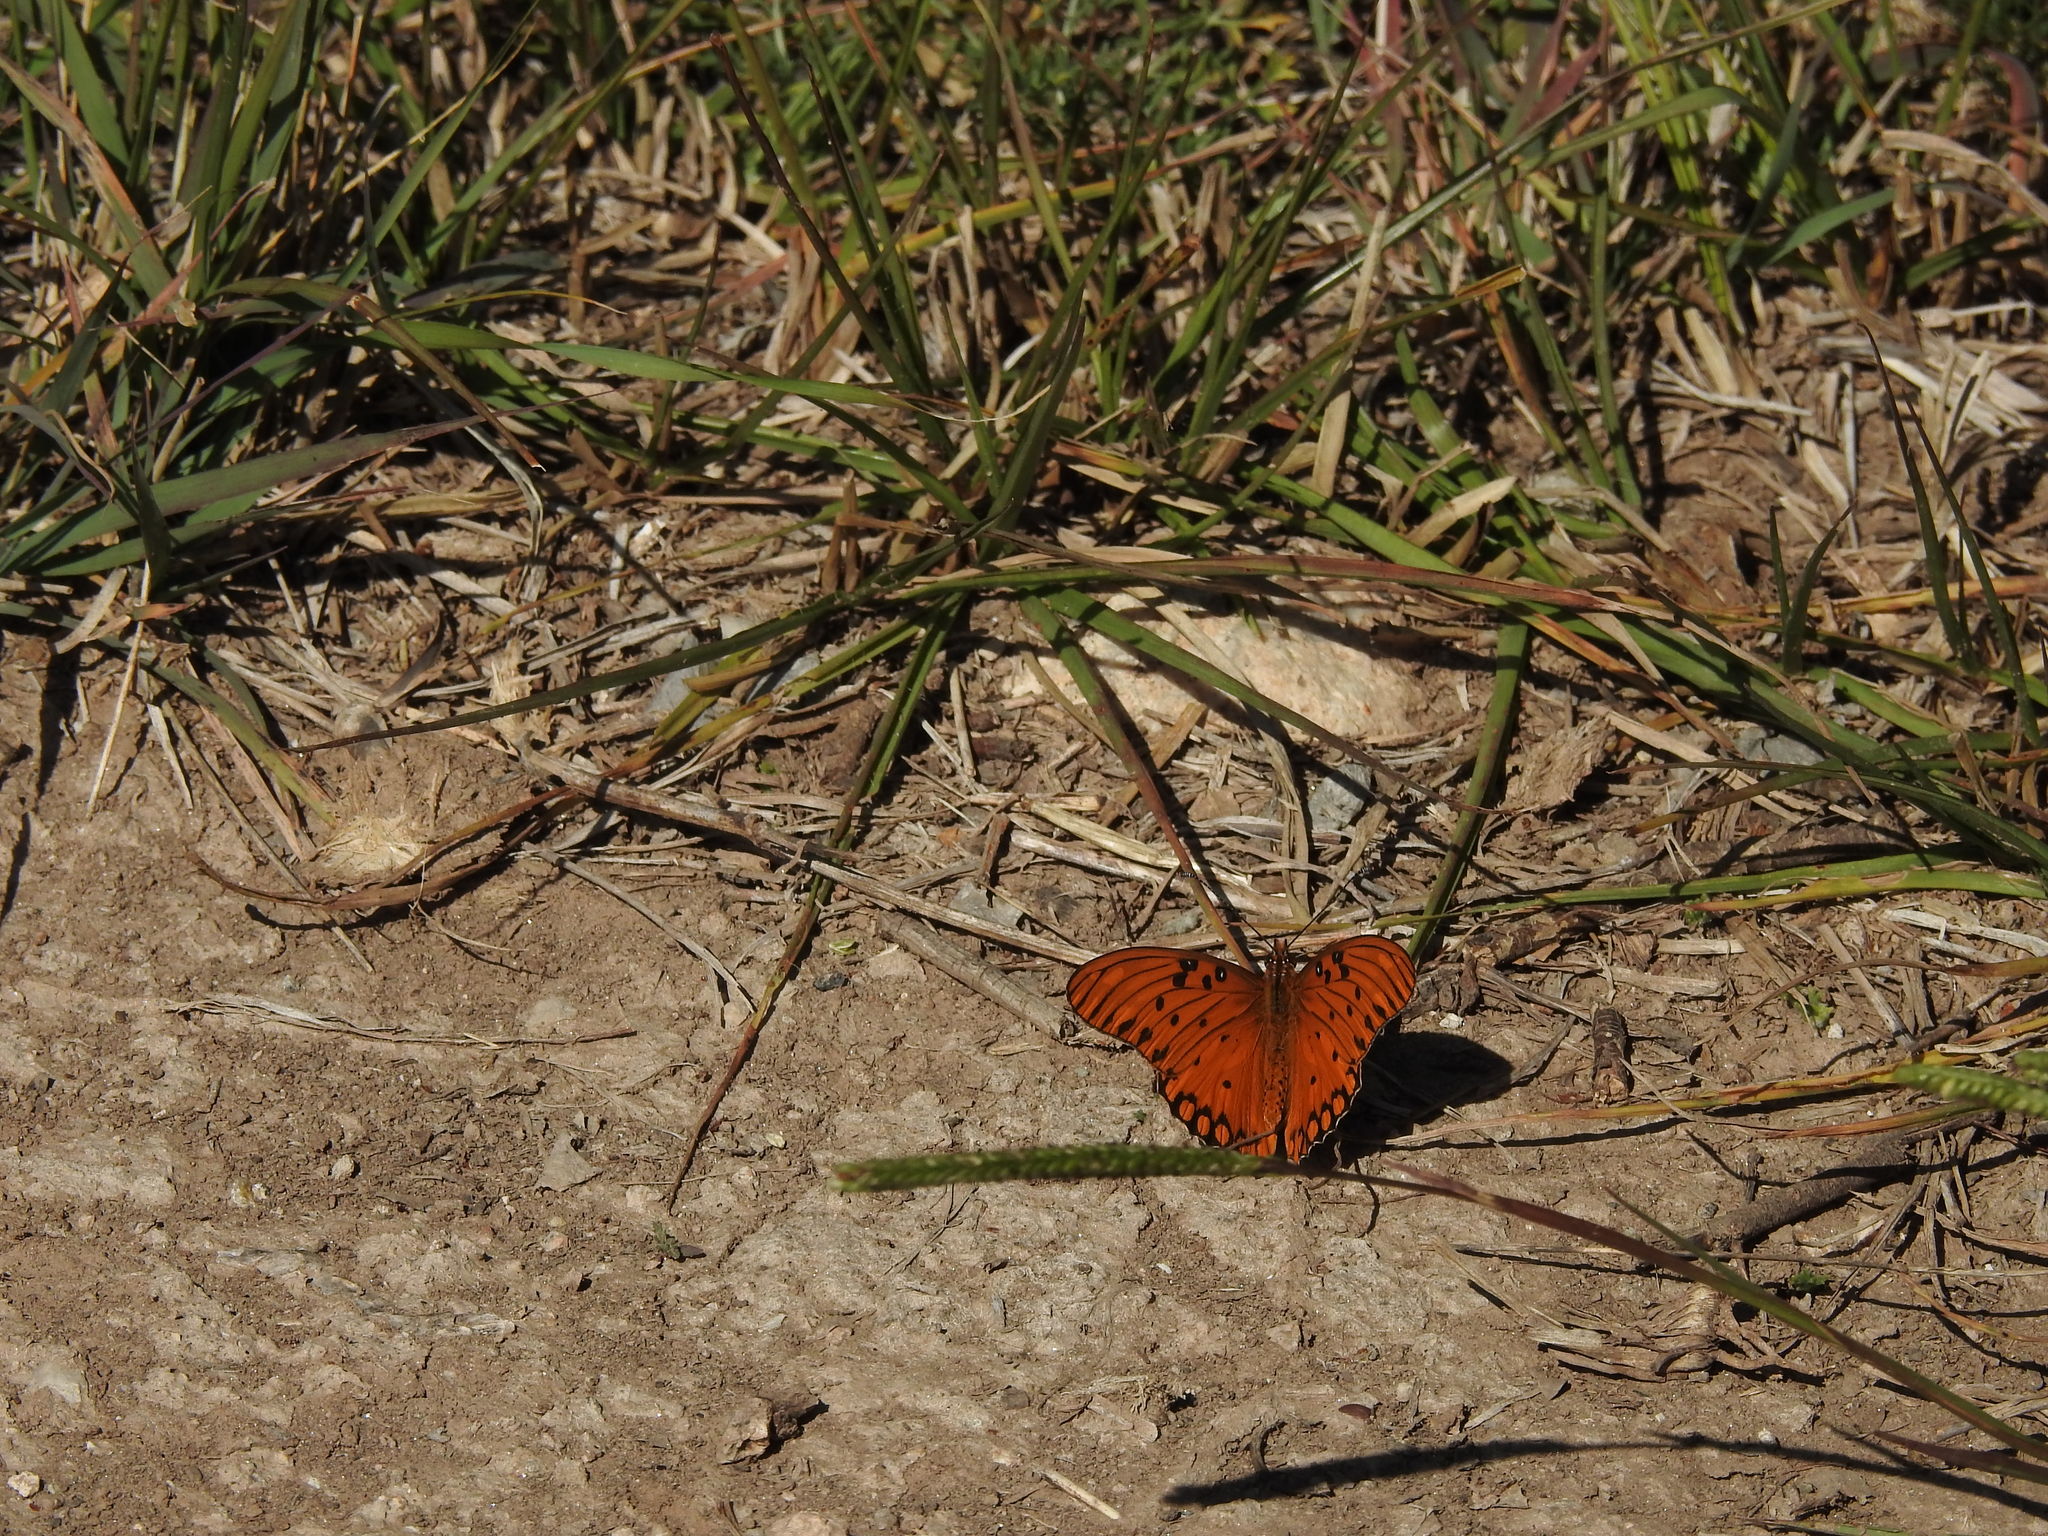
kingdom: Animalia
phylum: Arthropoda
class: Insecta
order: Lepidoptera
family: Nymphalidae
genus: Dione
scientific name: Dione vanillae
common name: Gulf fritillary
